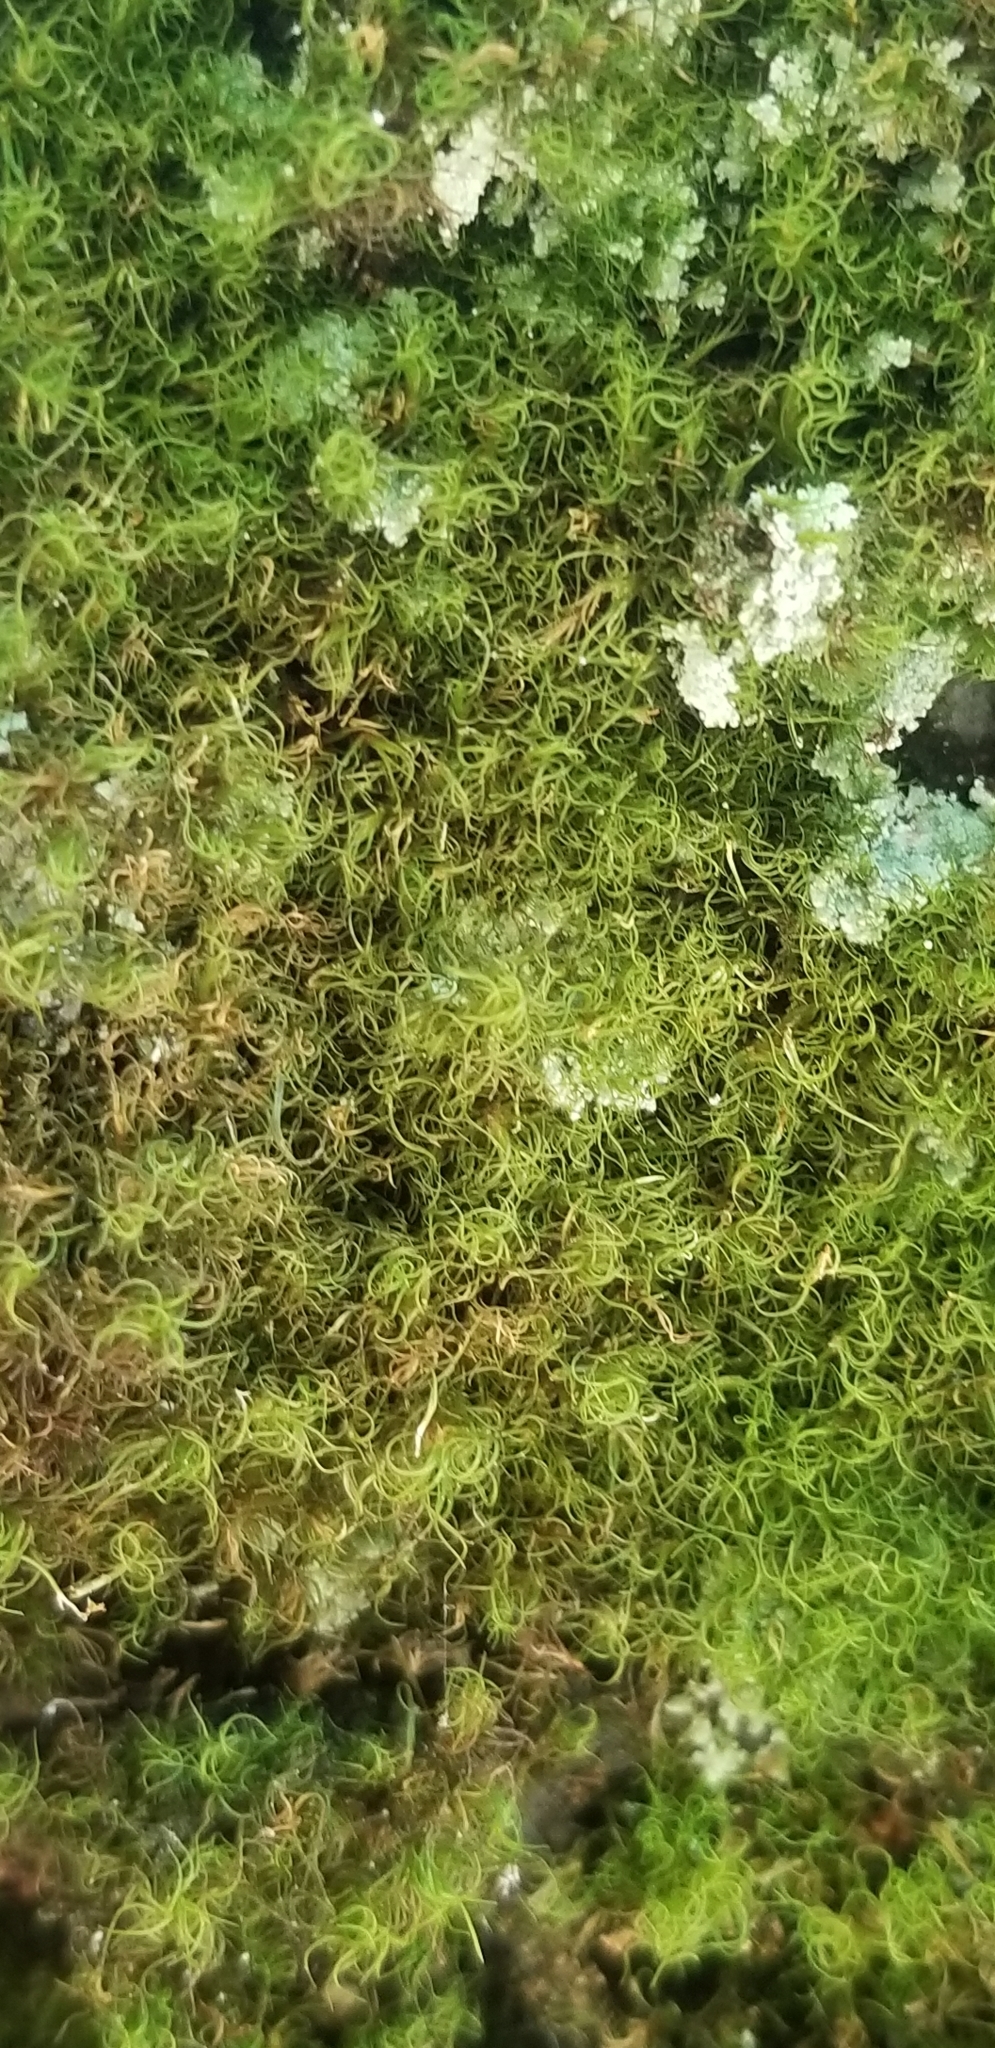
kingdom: Plantae
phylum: Bryophyta
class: Bryopsida
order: Dicranales
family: Dicranaceae
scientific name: Dicranaceae
